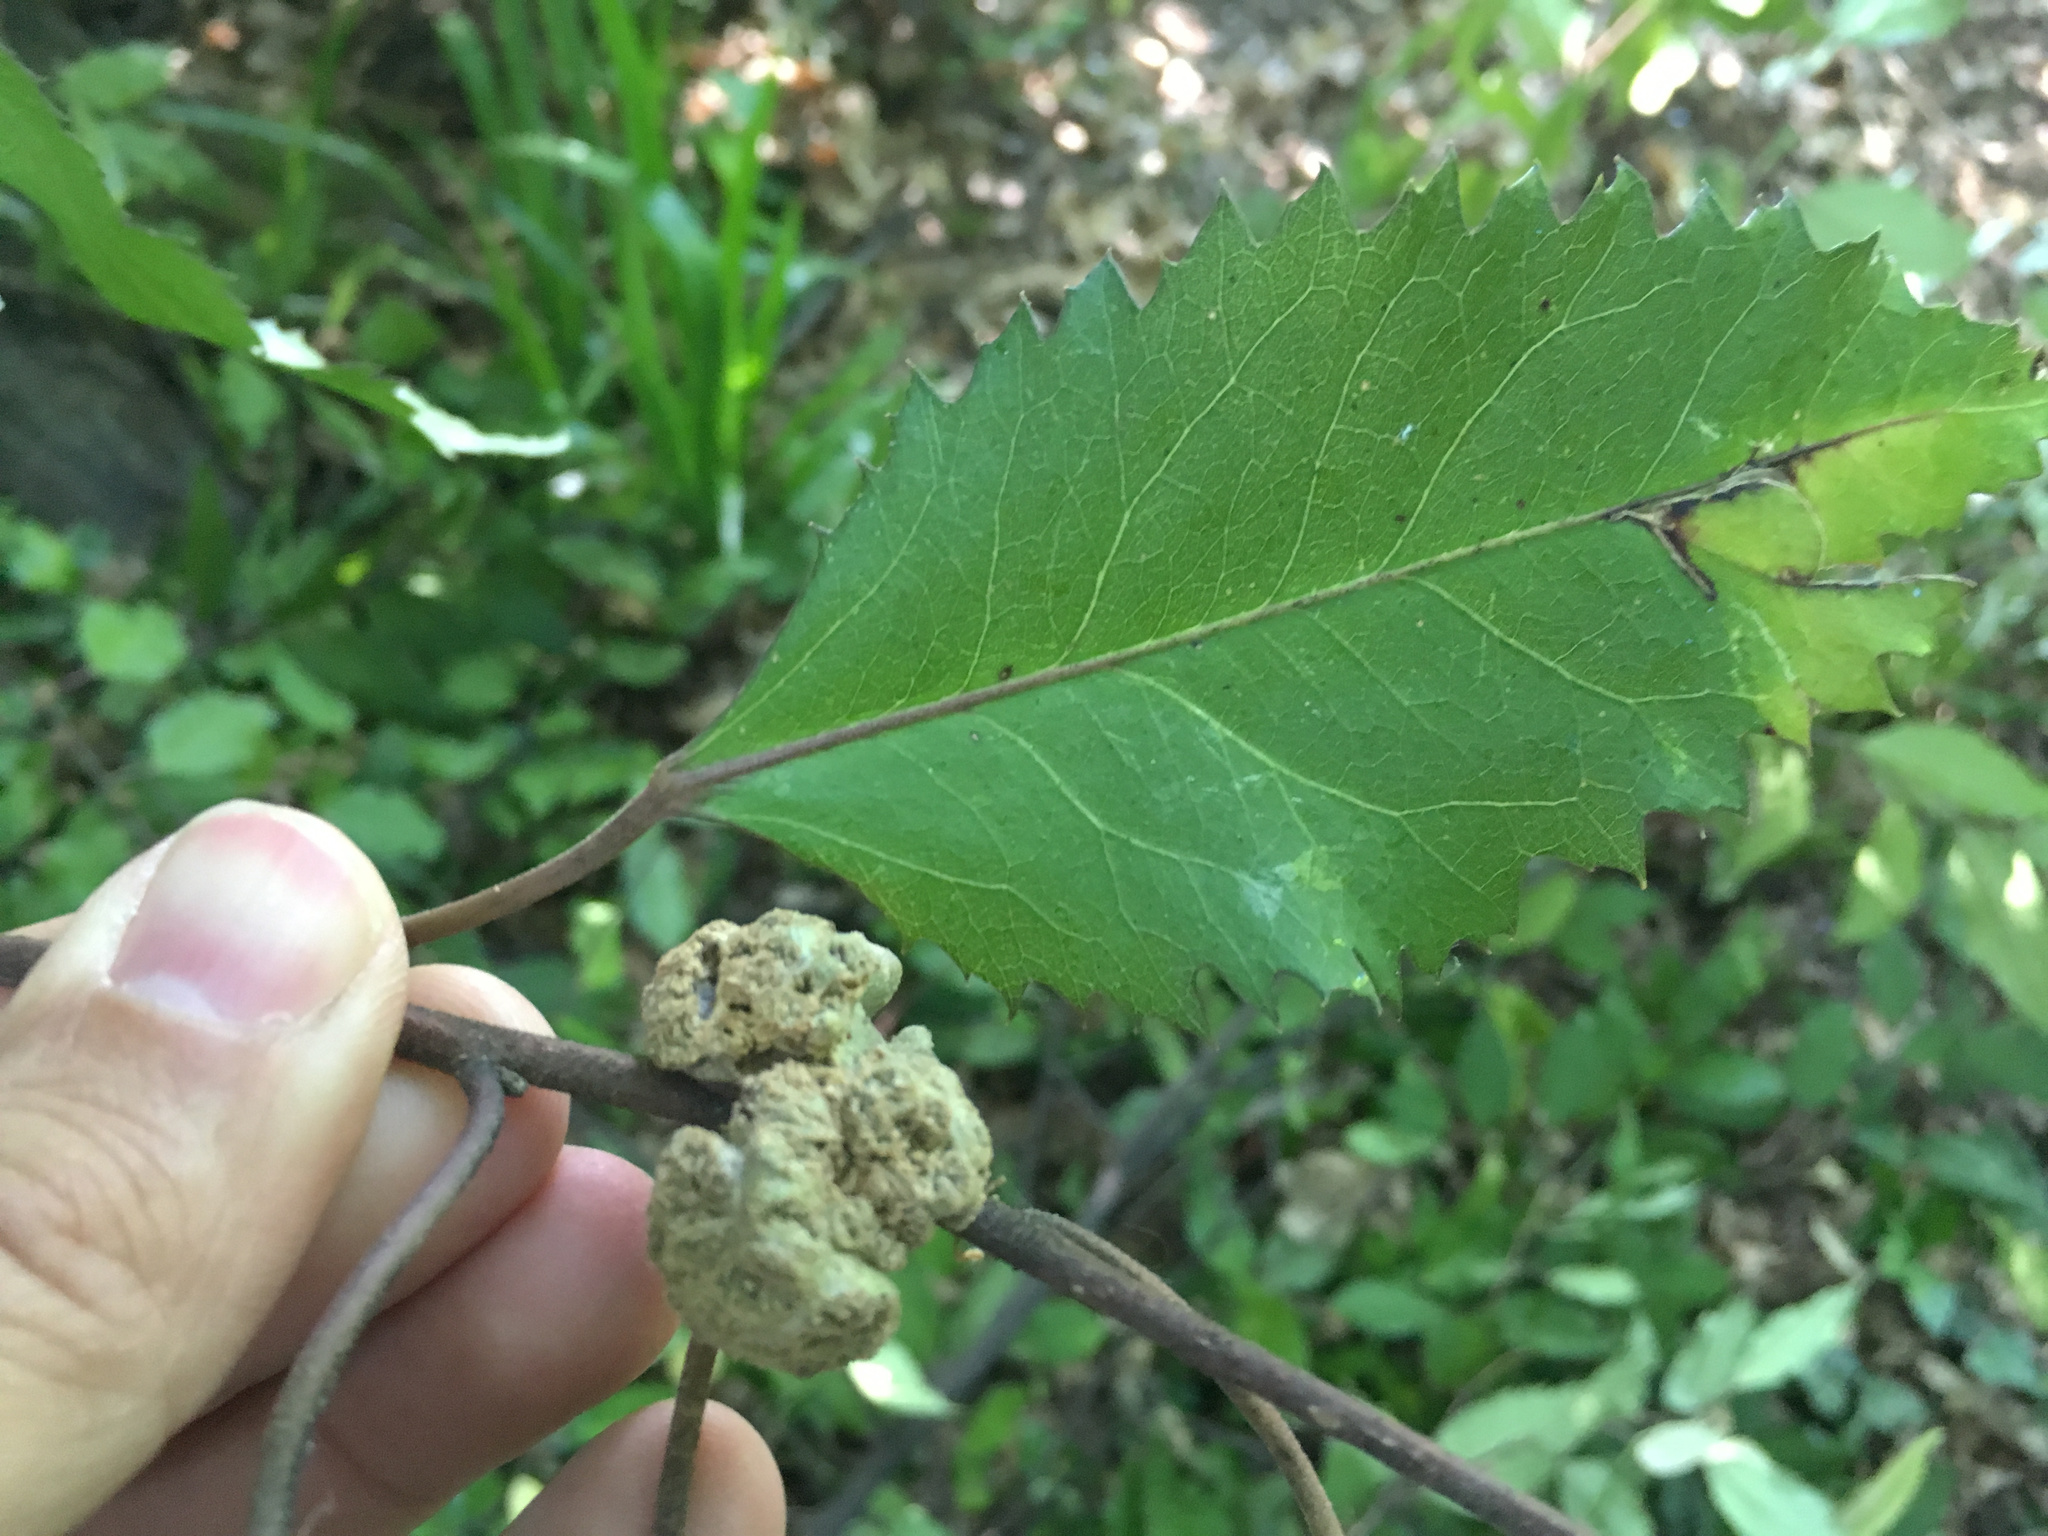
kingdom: Animalia
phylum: Arthropoda
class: Arachnida
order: Trombidiformes
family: Eriophyidae
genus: Eriophyes
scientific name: Eriophyes hoheriae
